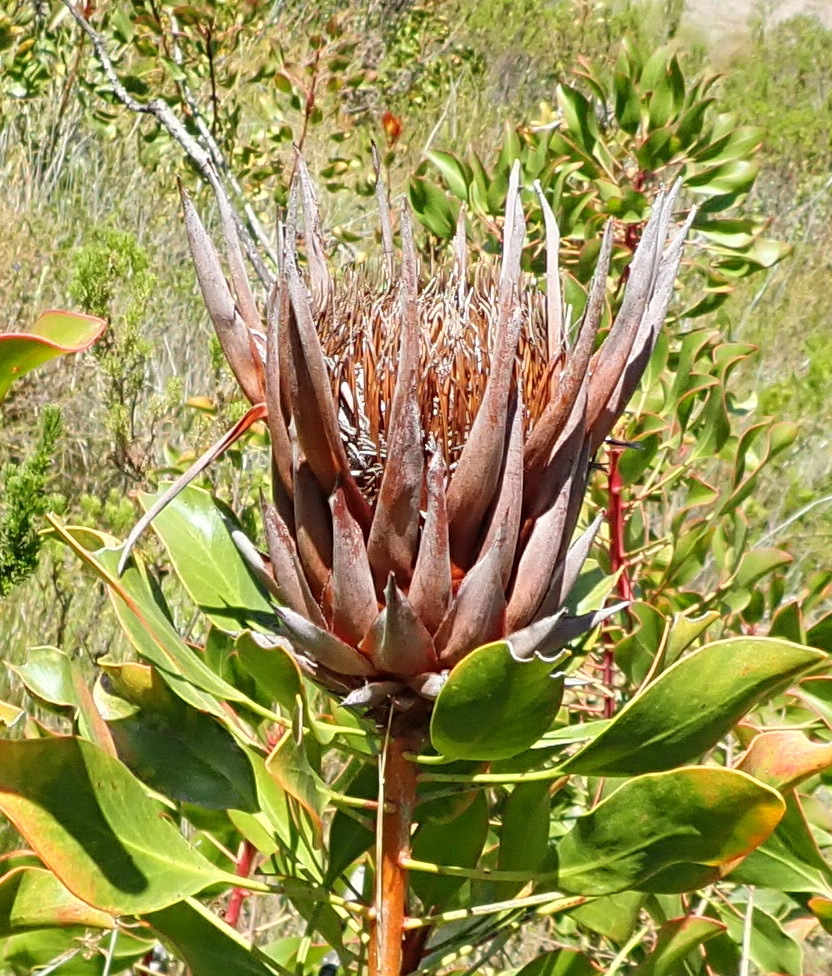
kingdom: Plantae
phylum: Tracheophyta
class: Magnoliopsida
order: Proteales
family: Proteaceae
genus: Protea
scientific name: Protea cynaroides
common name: King protea
